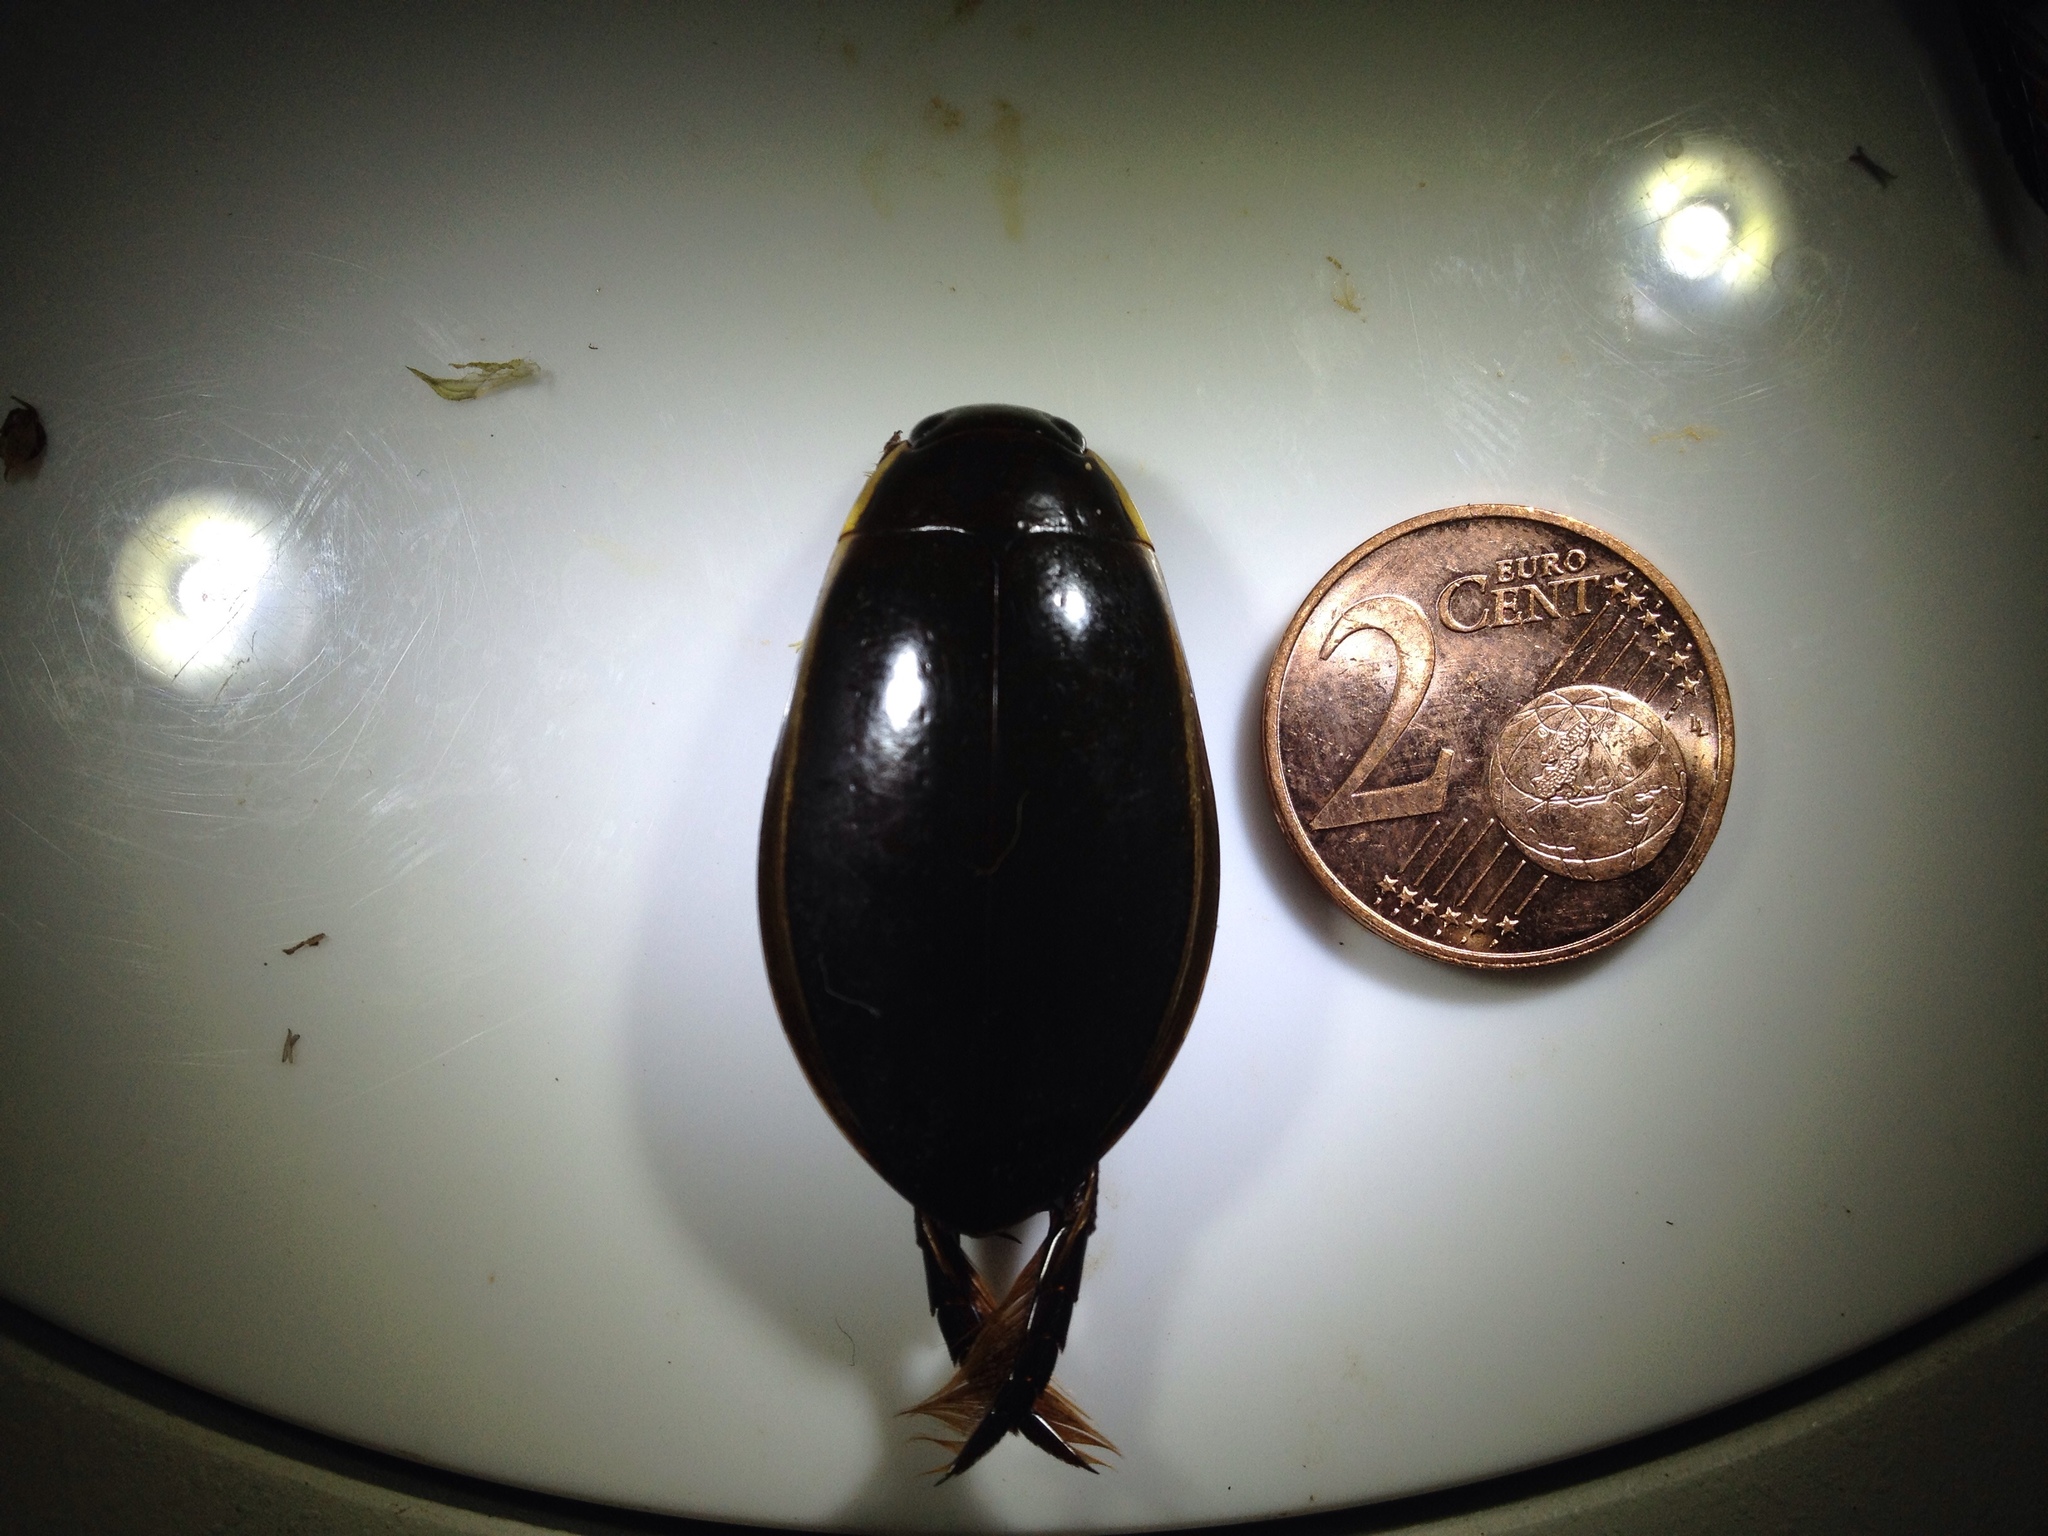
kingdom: Animalia
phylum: Arthropoda
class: Insecta
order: Coleoptera
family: Dytiscidae
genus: Cybister
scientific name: Cybister lateralimarginalis
